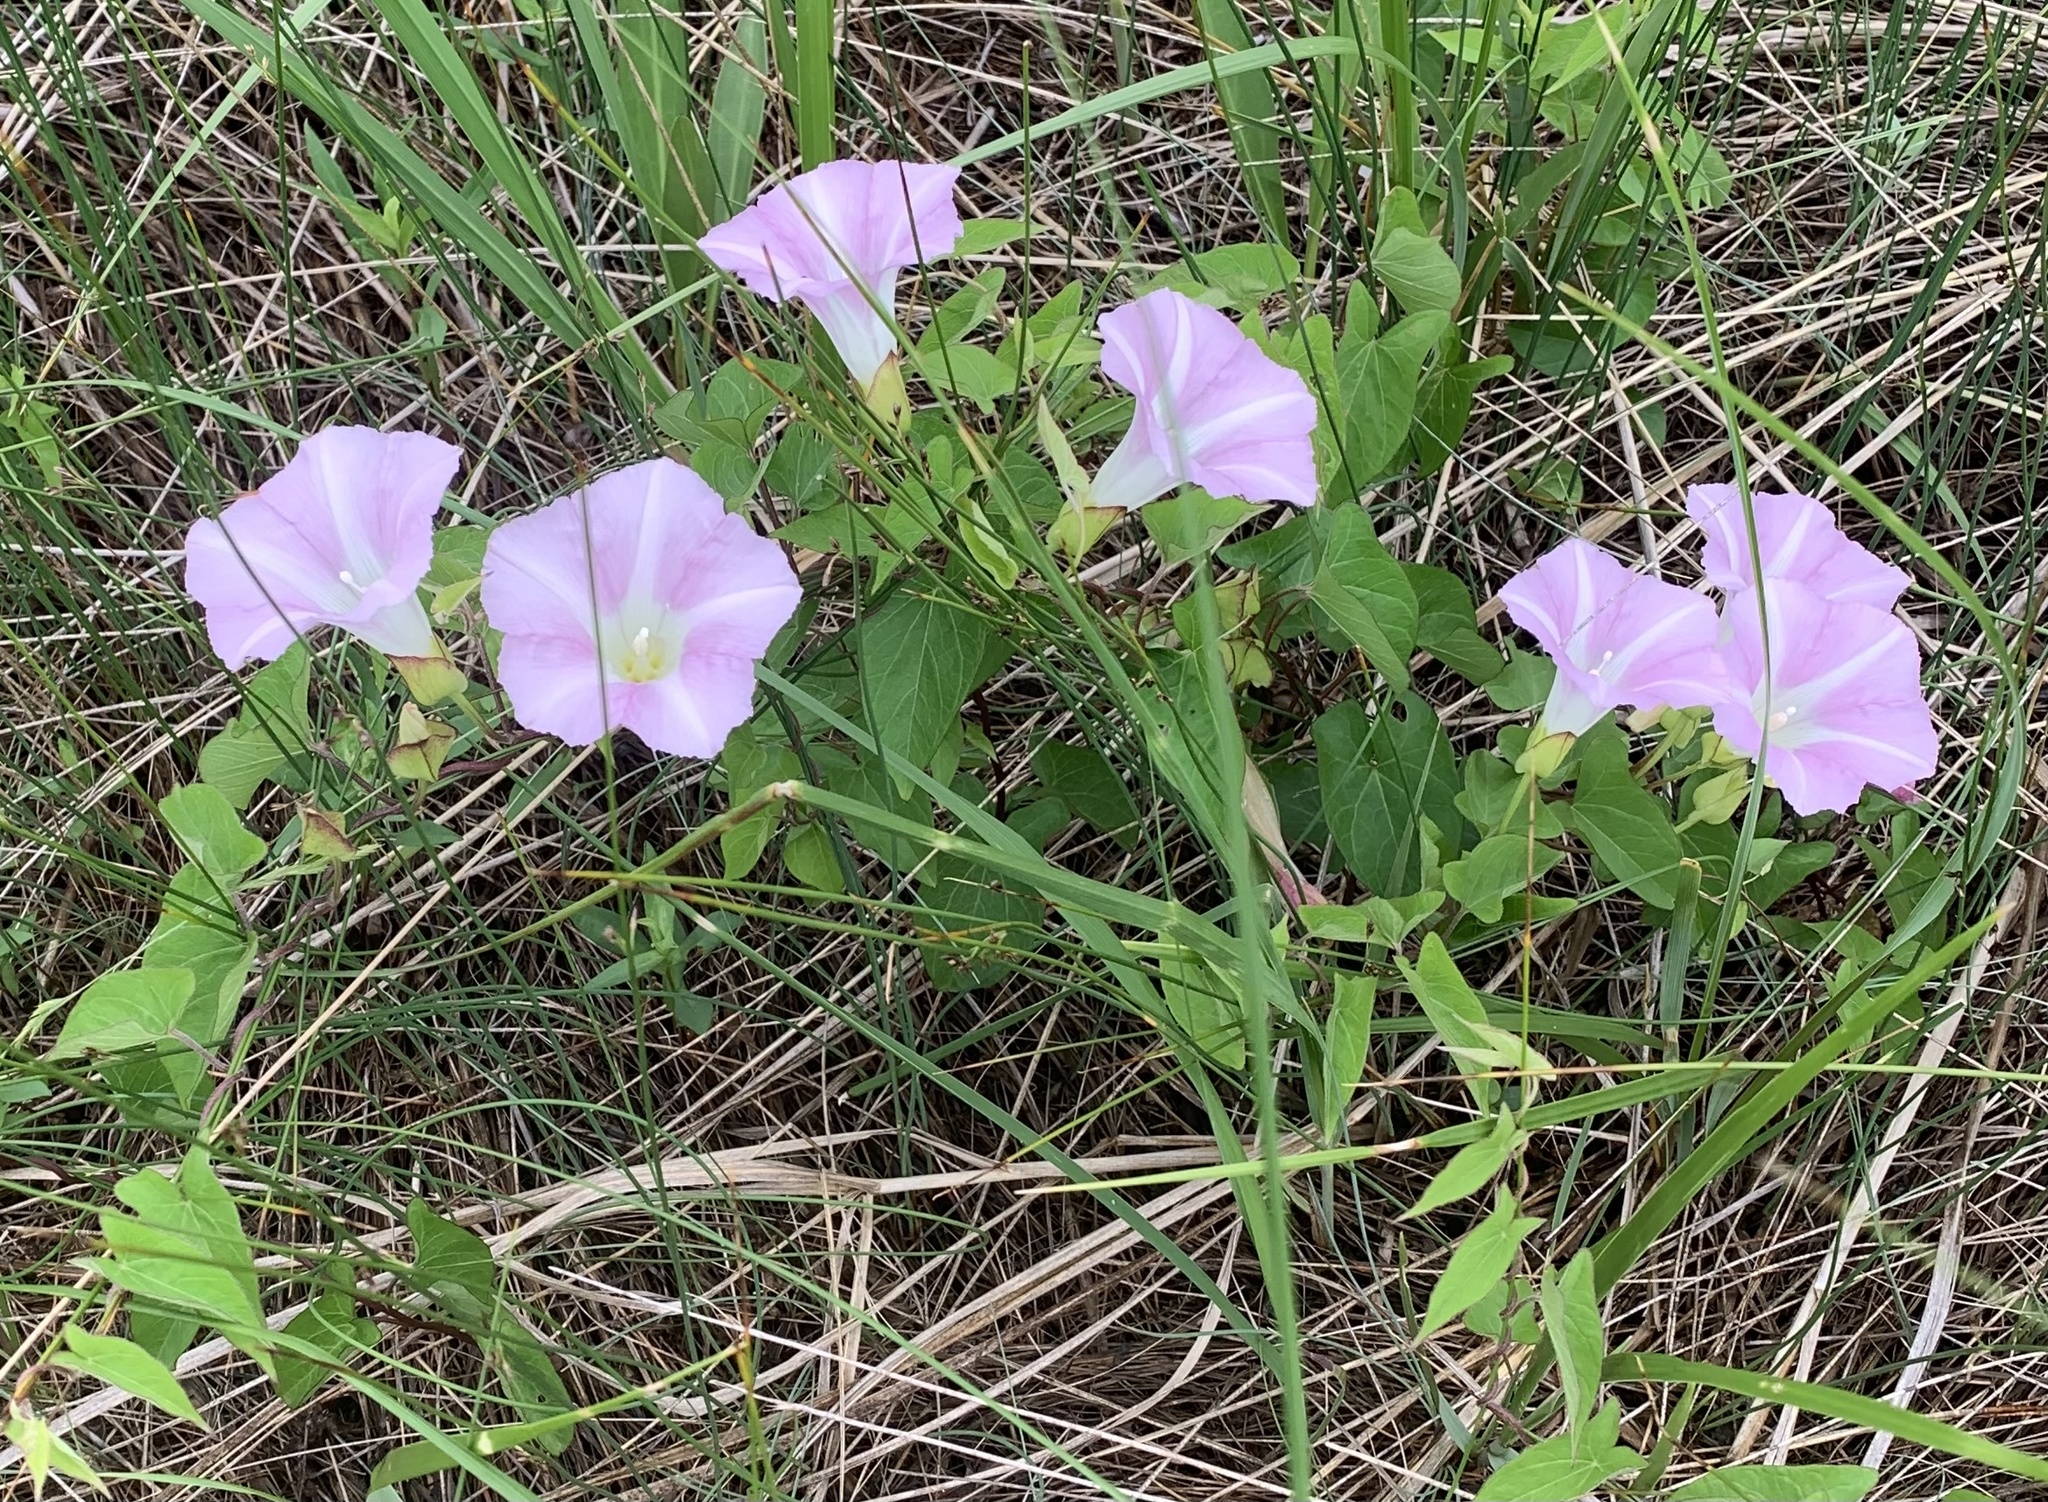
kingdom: Plantae
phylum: Tracheophyta
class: Magnoliopsida
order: Solanales
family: Convolvulaceae
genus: Calystegia
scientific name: Calystegia sepium
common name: Hedge bindweed
